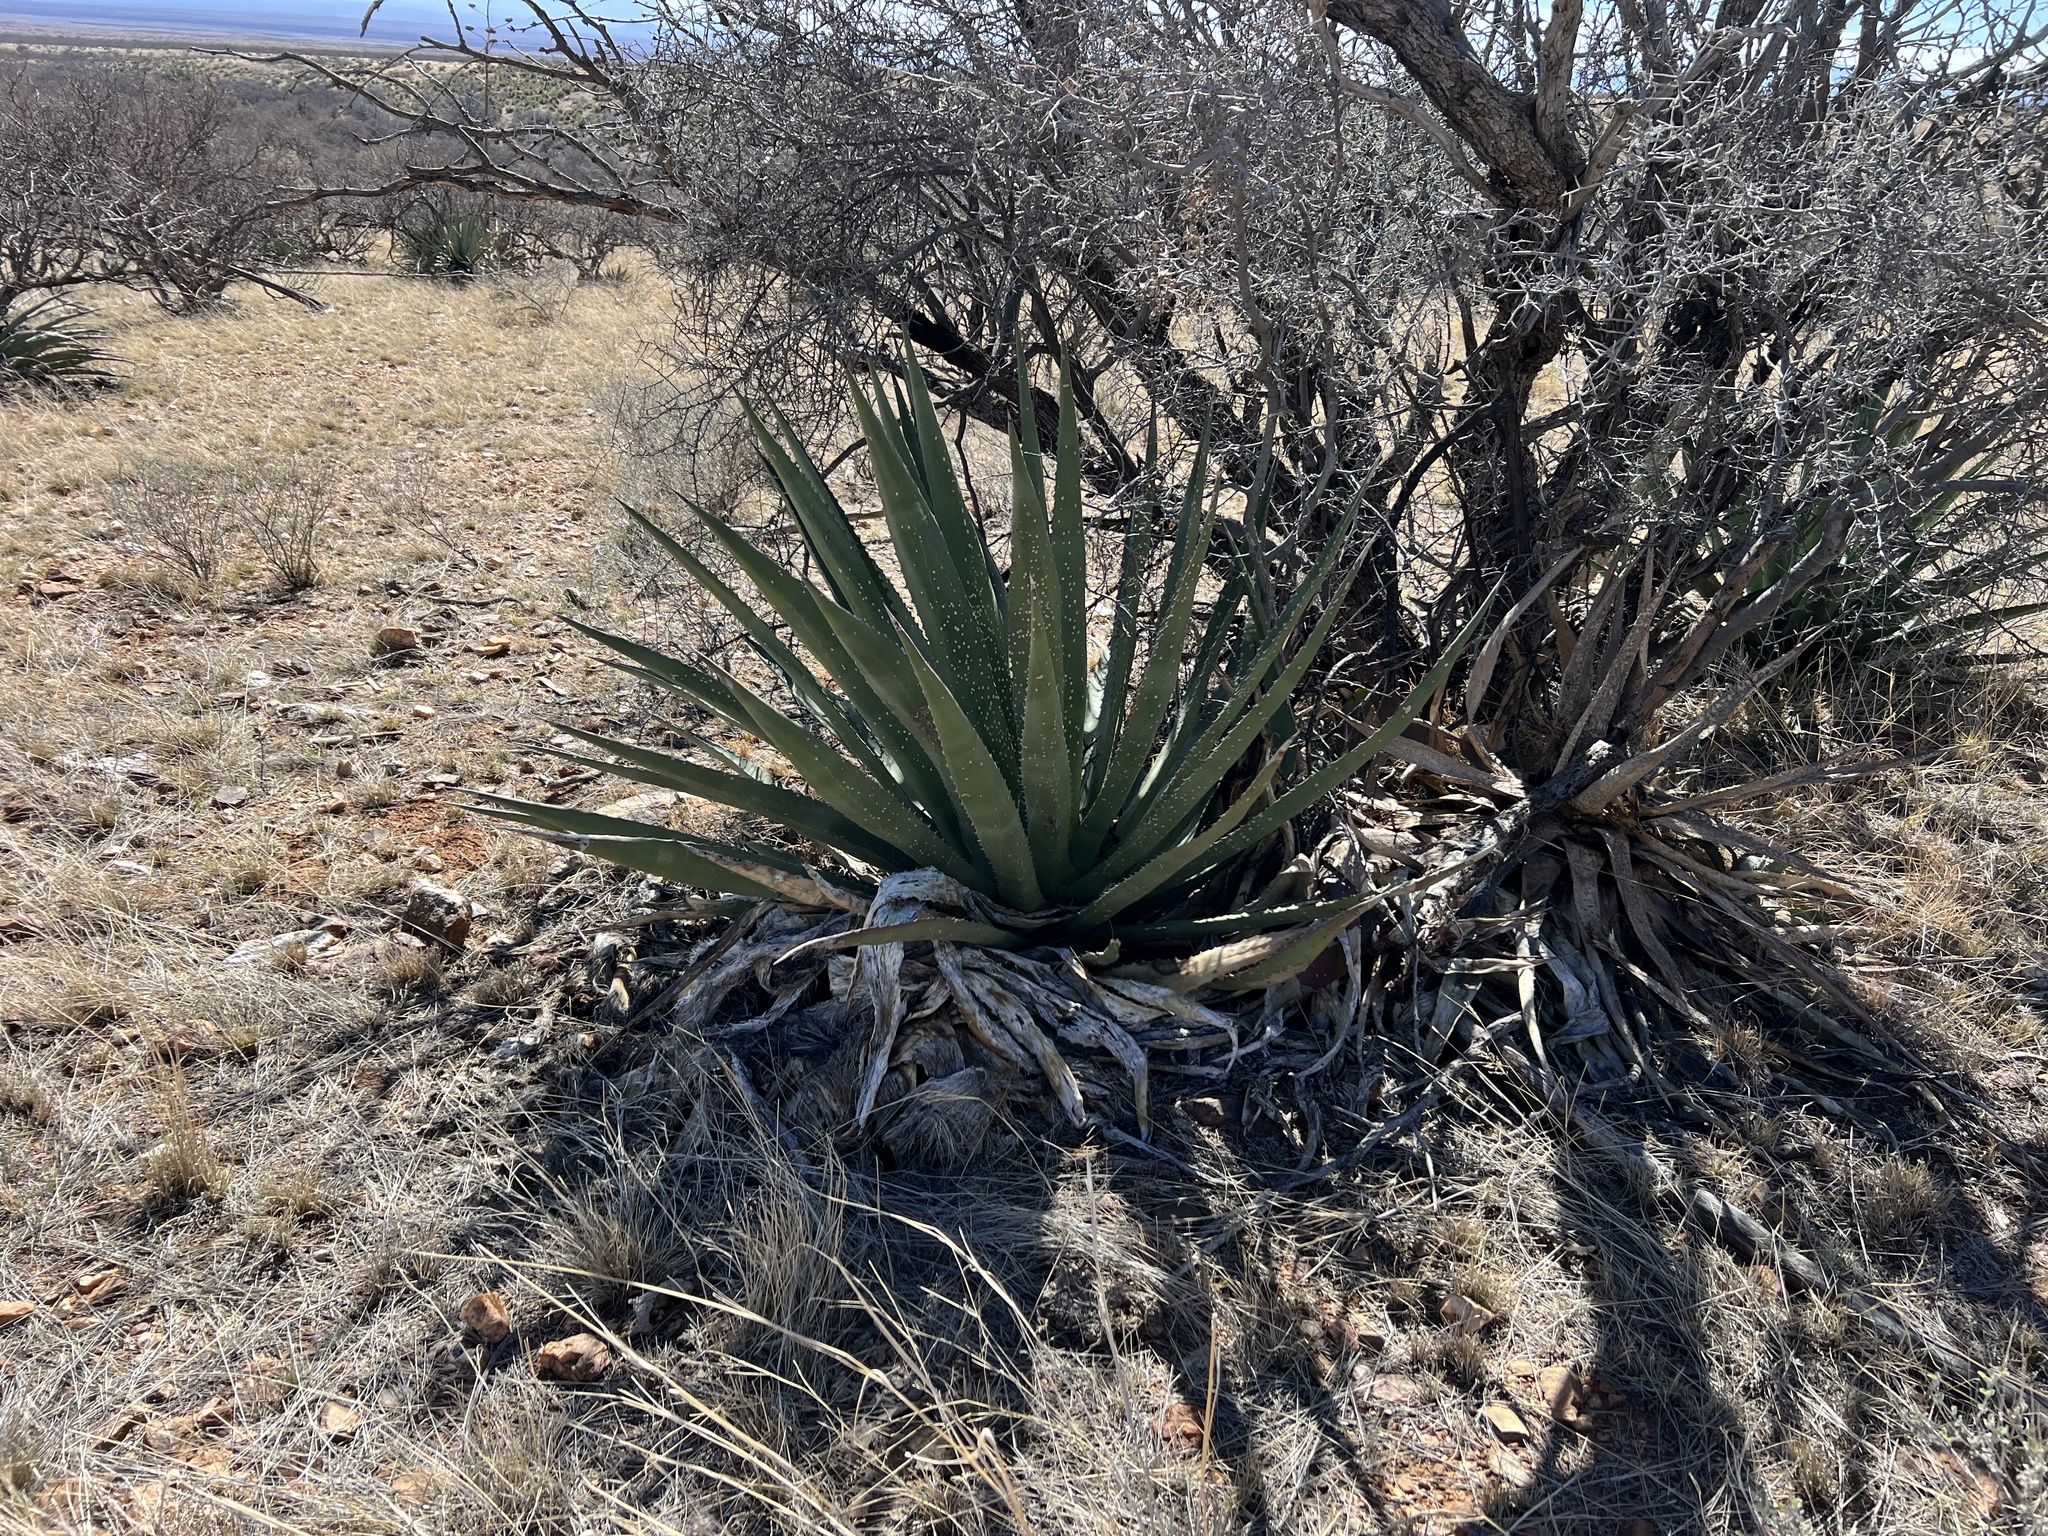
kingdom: Plantae
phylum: Tracheophyta
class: Liliopsida
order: Asparagales
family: Asparagaceae
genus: Agave
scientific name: Agave palmeri
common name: Palmer agave
